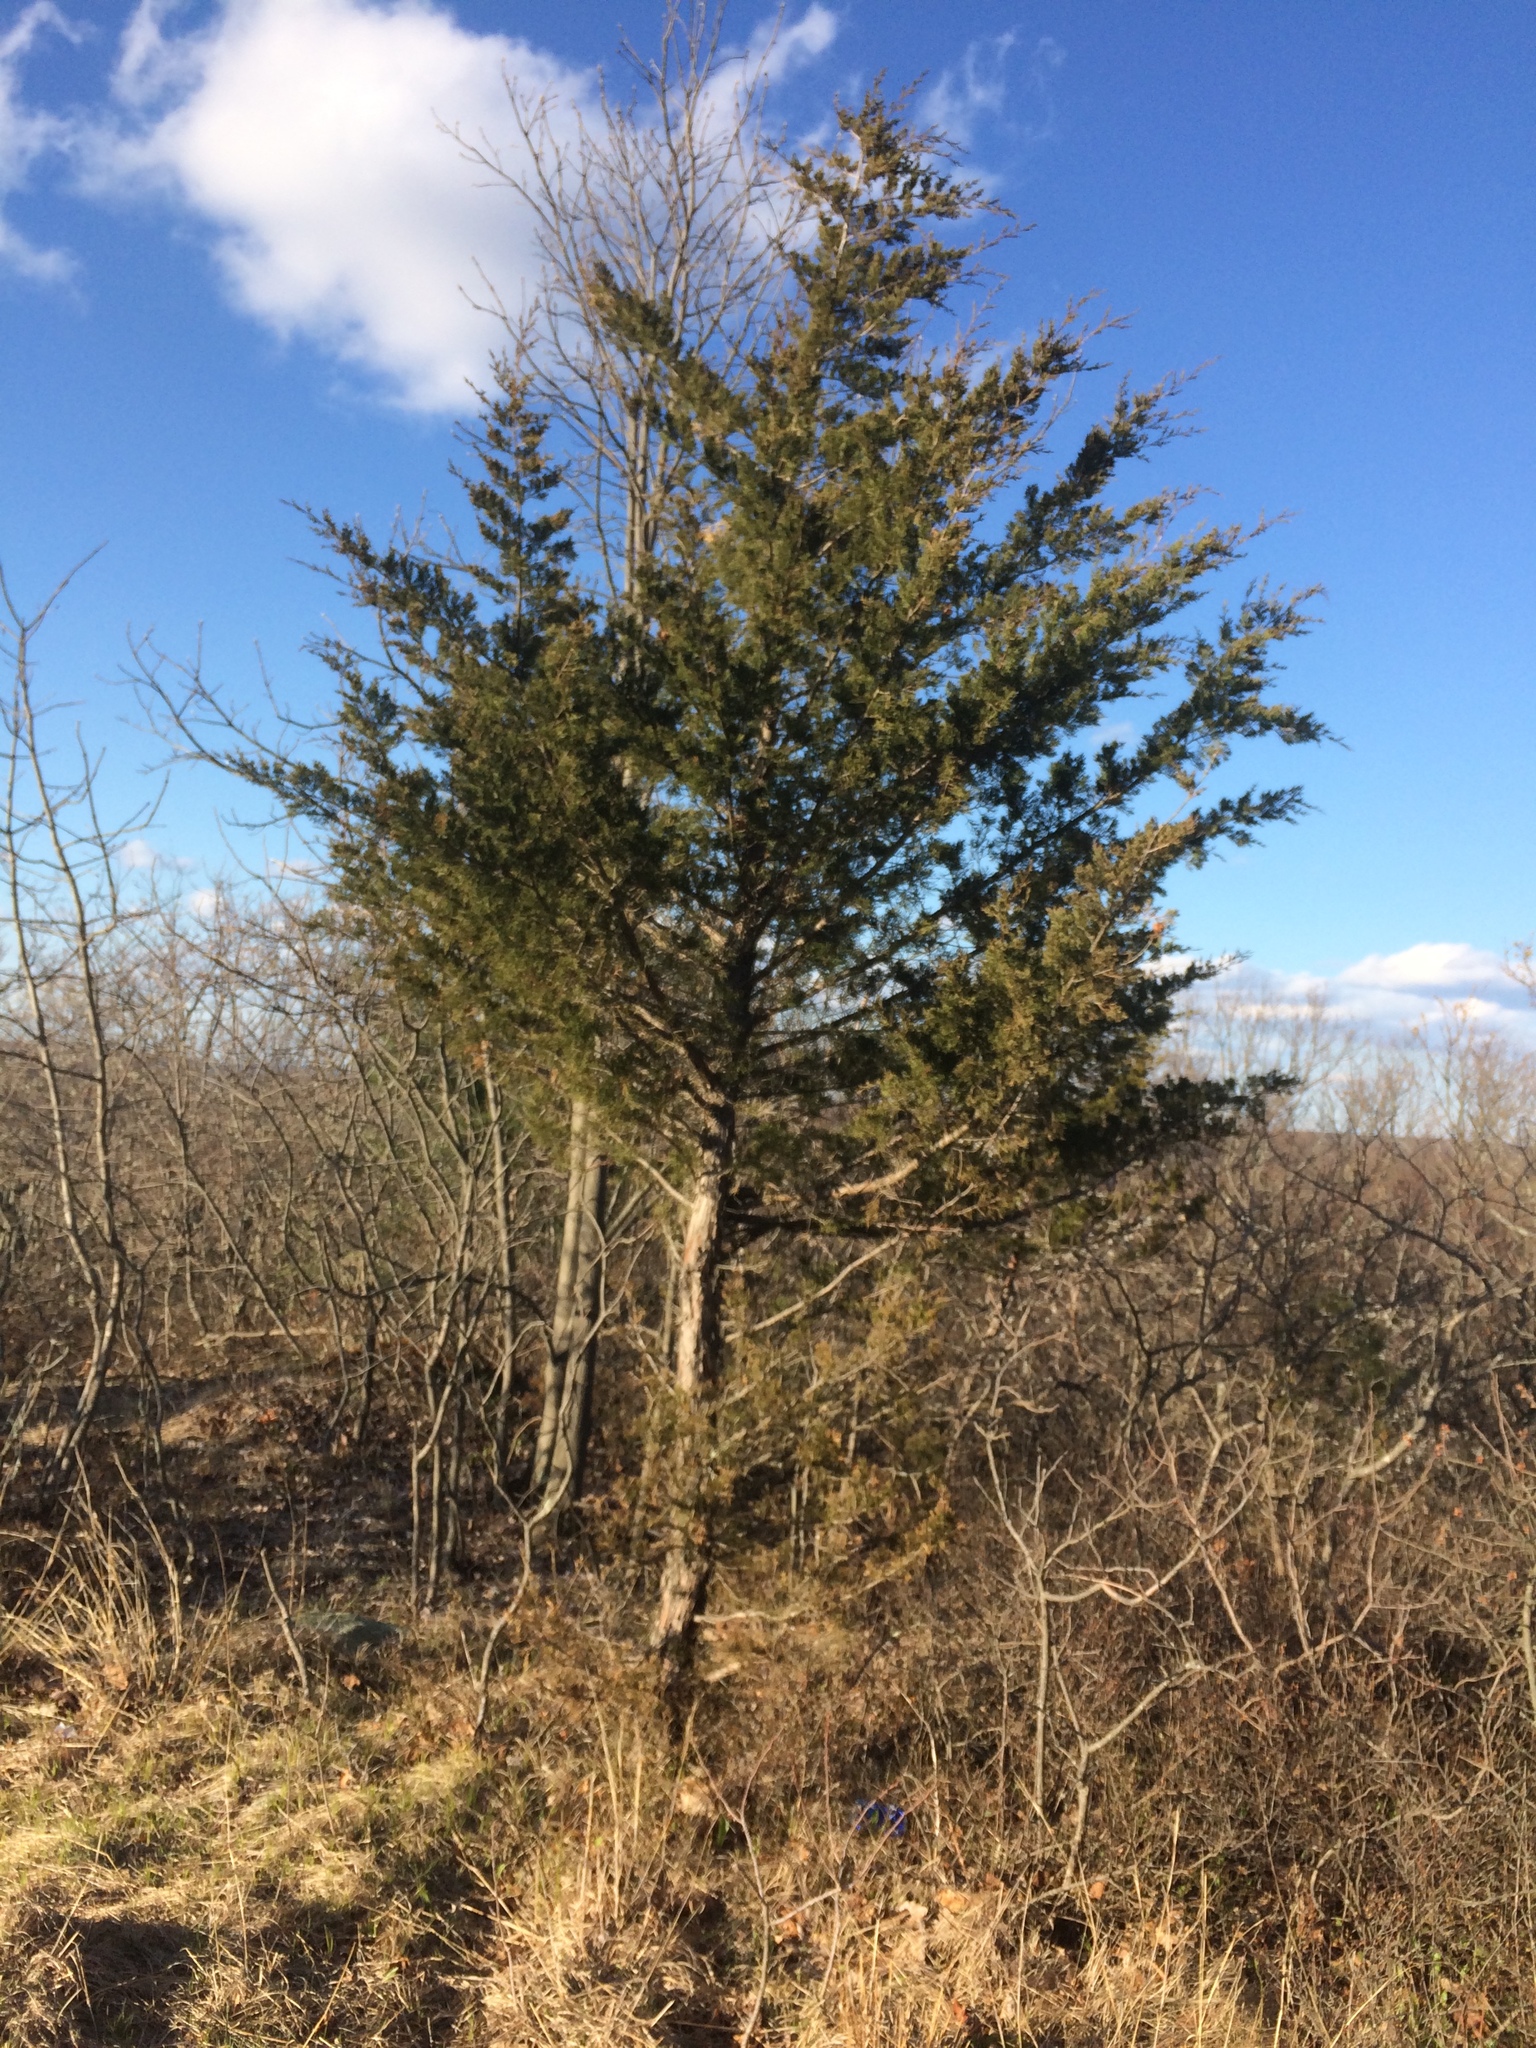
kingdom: Plantae
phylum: Tracheophyta
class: Pinopsida
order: Pinales
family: Cupressaceae
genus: Juniperus
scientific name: Juniperus virginiana
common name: Red juniper
